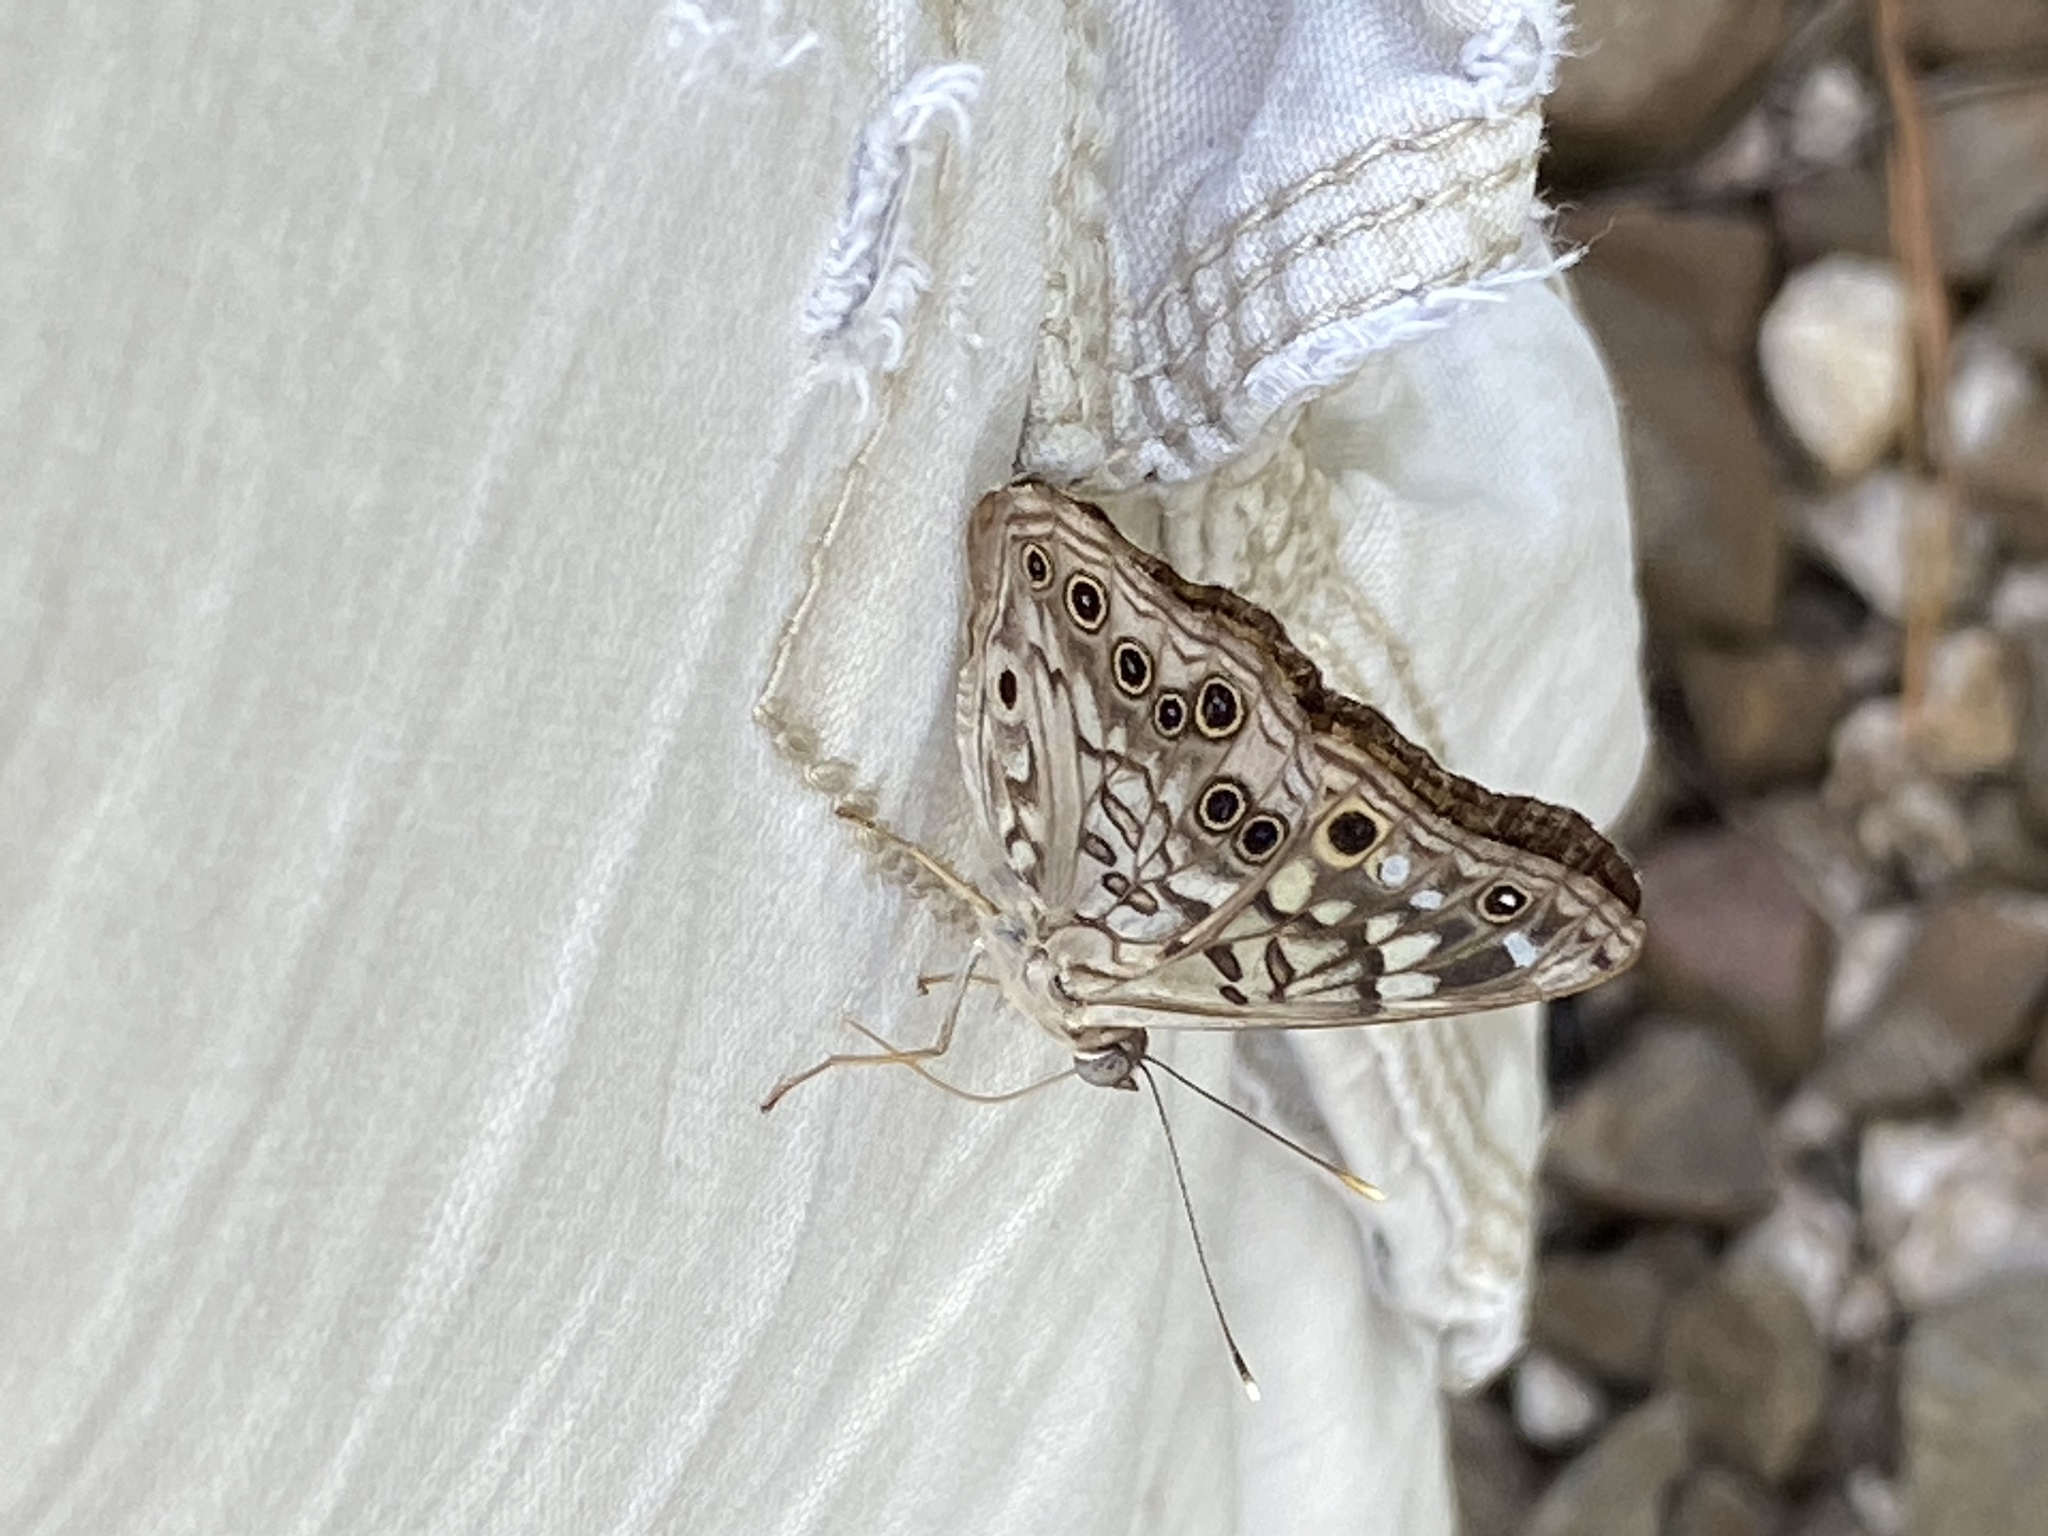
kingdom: Animalia
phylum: Arthropoda
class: Insecta
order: Lepidoptera
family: Nymphalidae
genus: Asterocampa
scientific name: Asterocampa celtis
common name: Hackberry emperor
